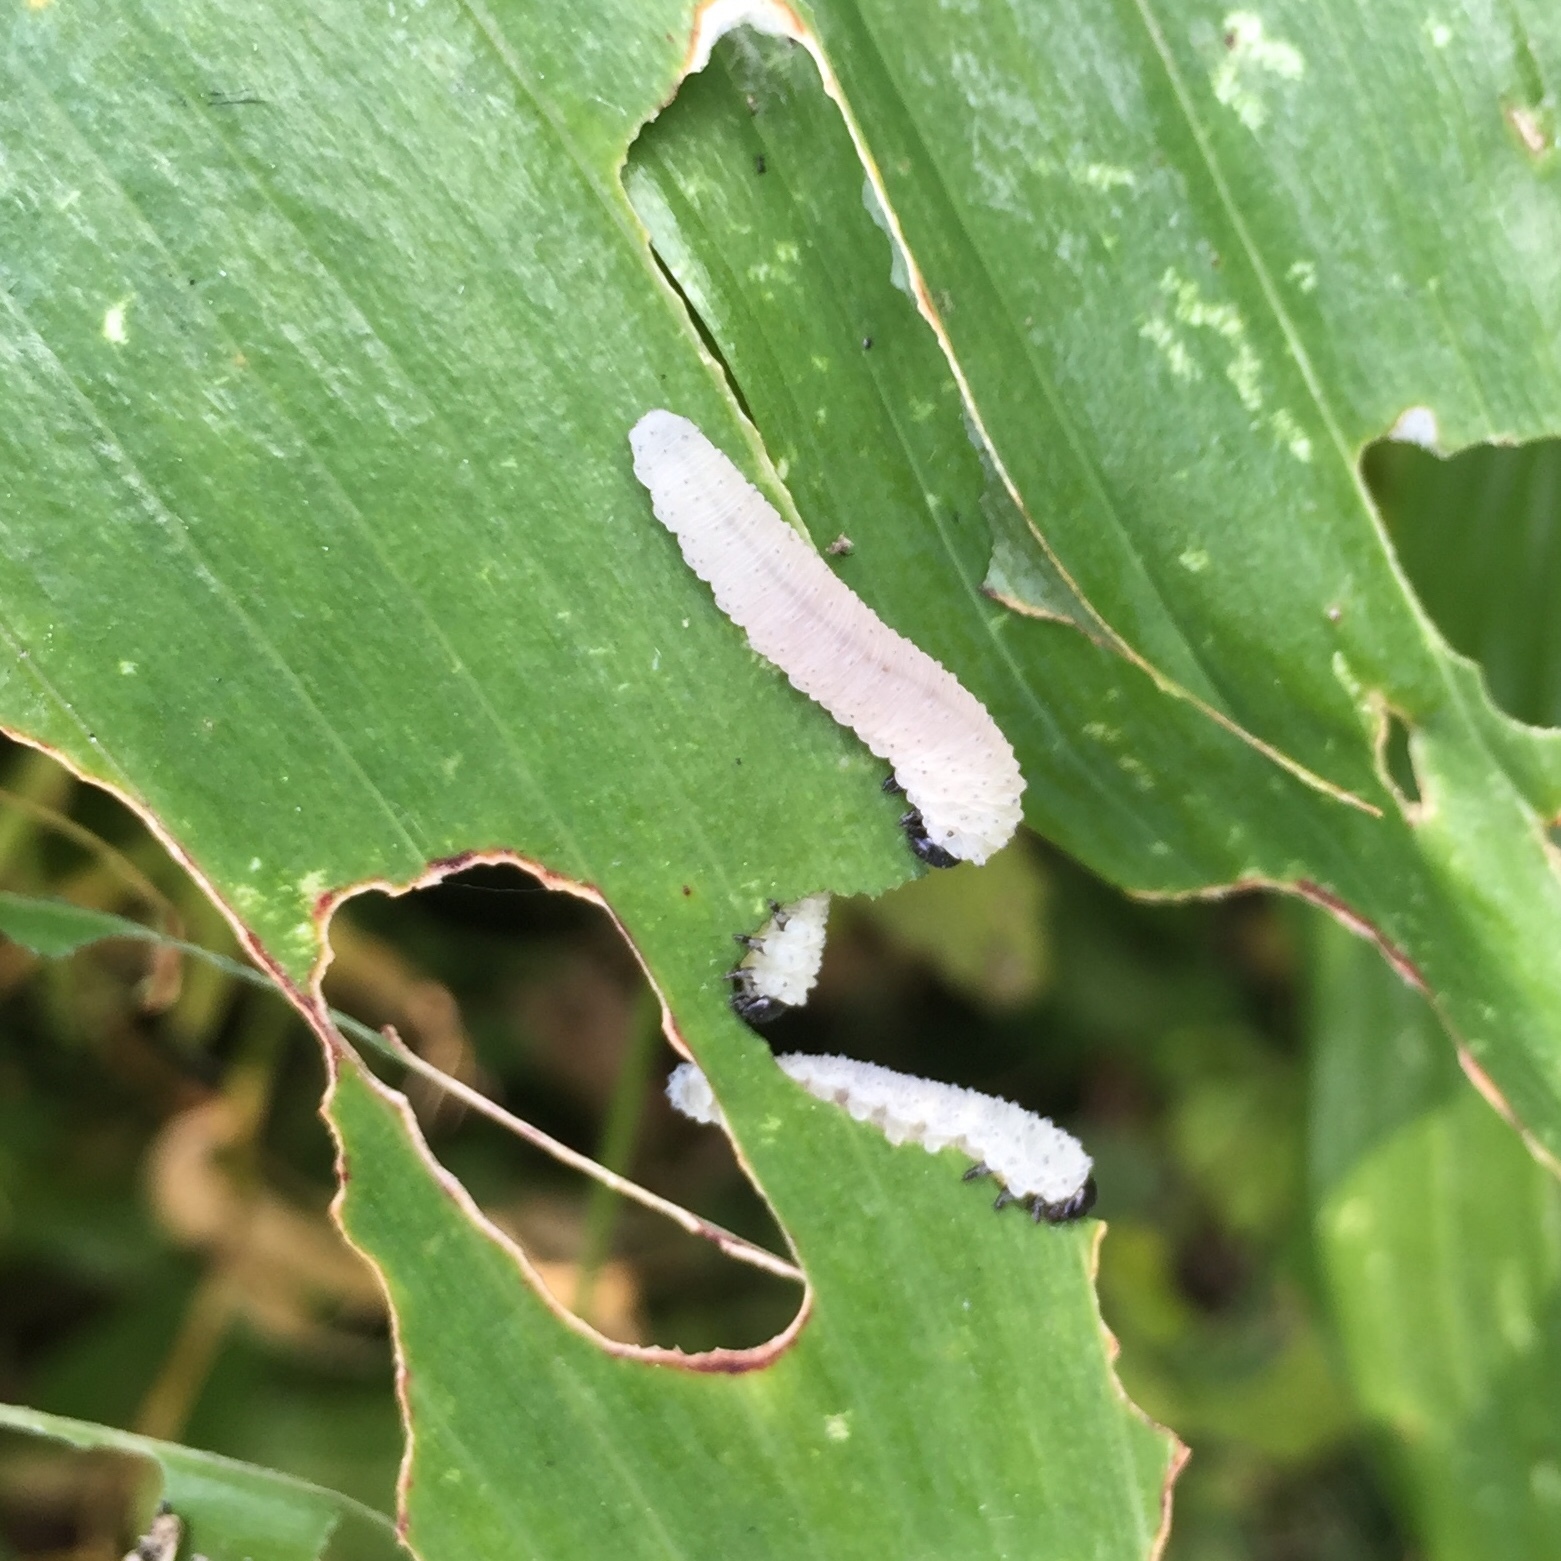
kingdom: Animalia
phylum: Arthropoda
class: Insecta
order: Hymenoptera
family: Tenthredinidae
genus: Phymatocera
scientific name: Phymatocera aterrima
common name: Solomon's-seal sawfly
